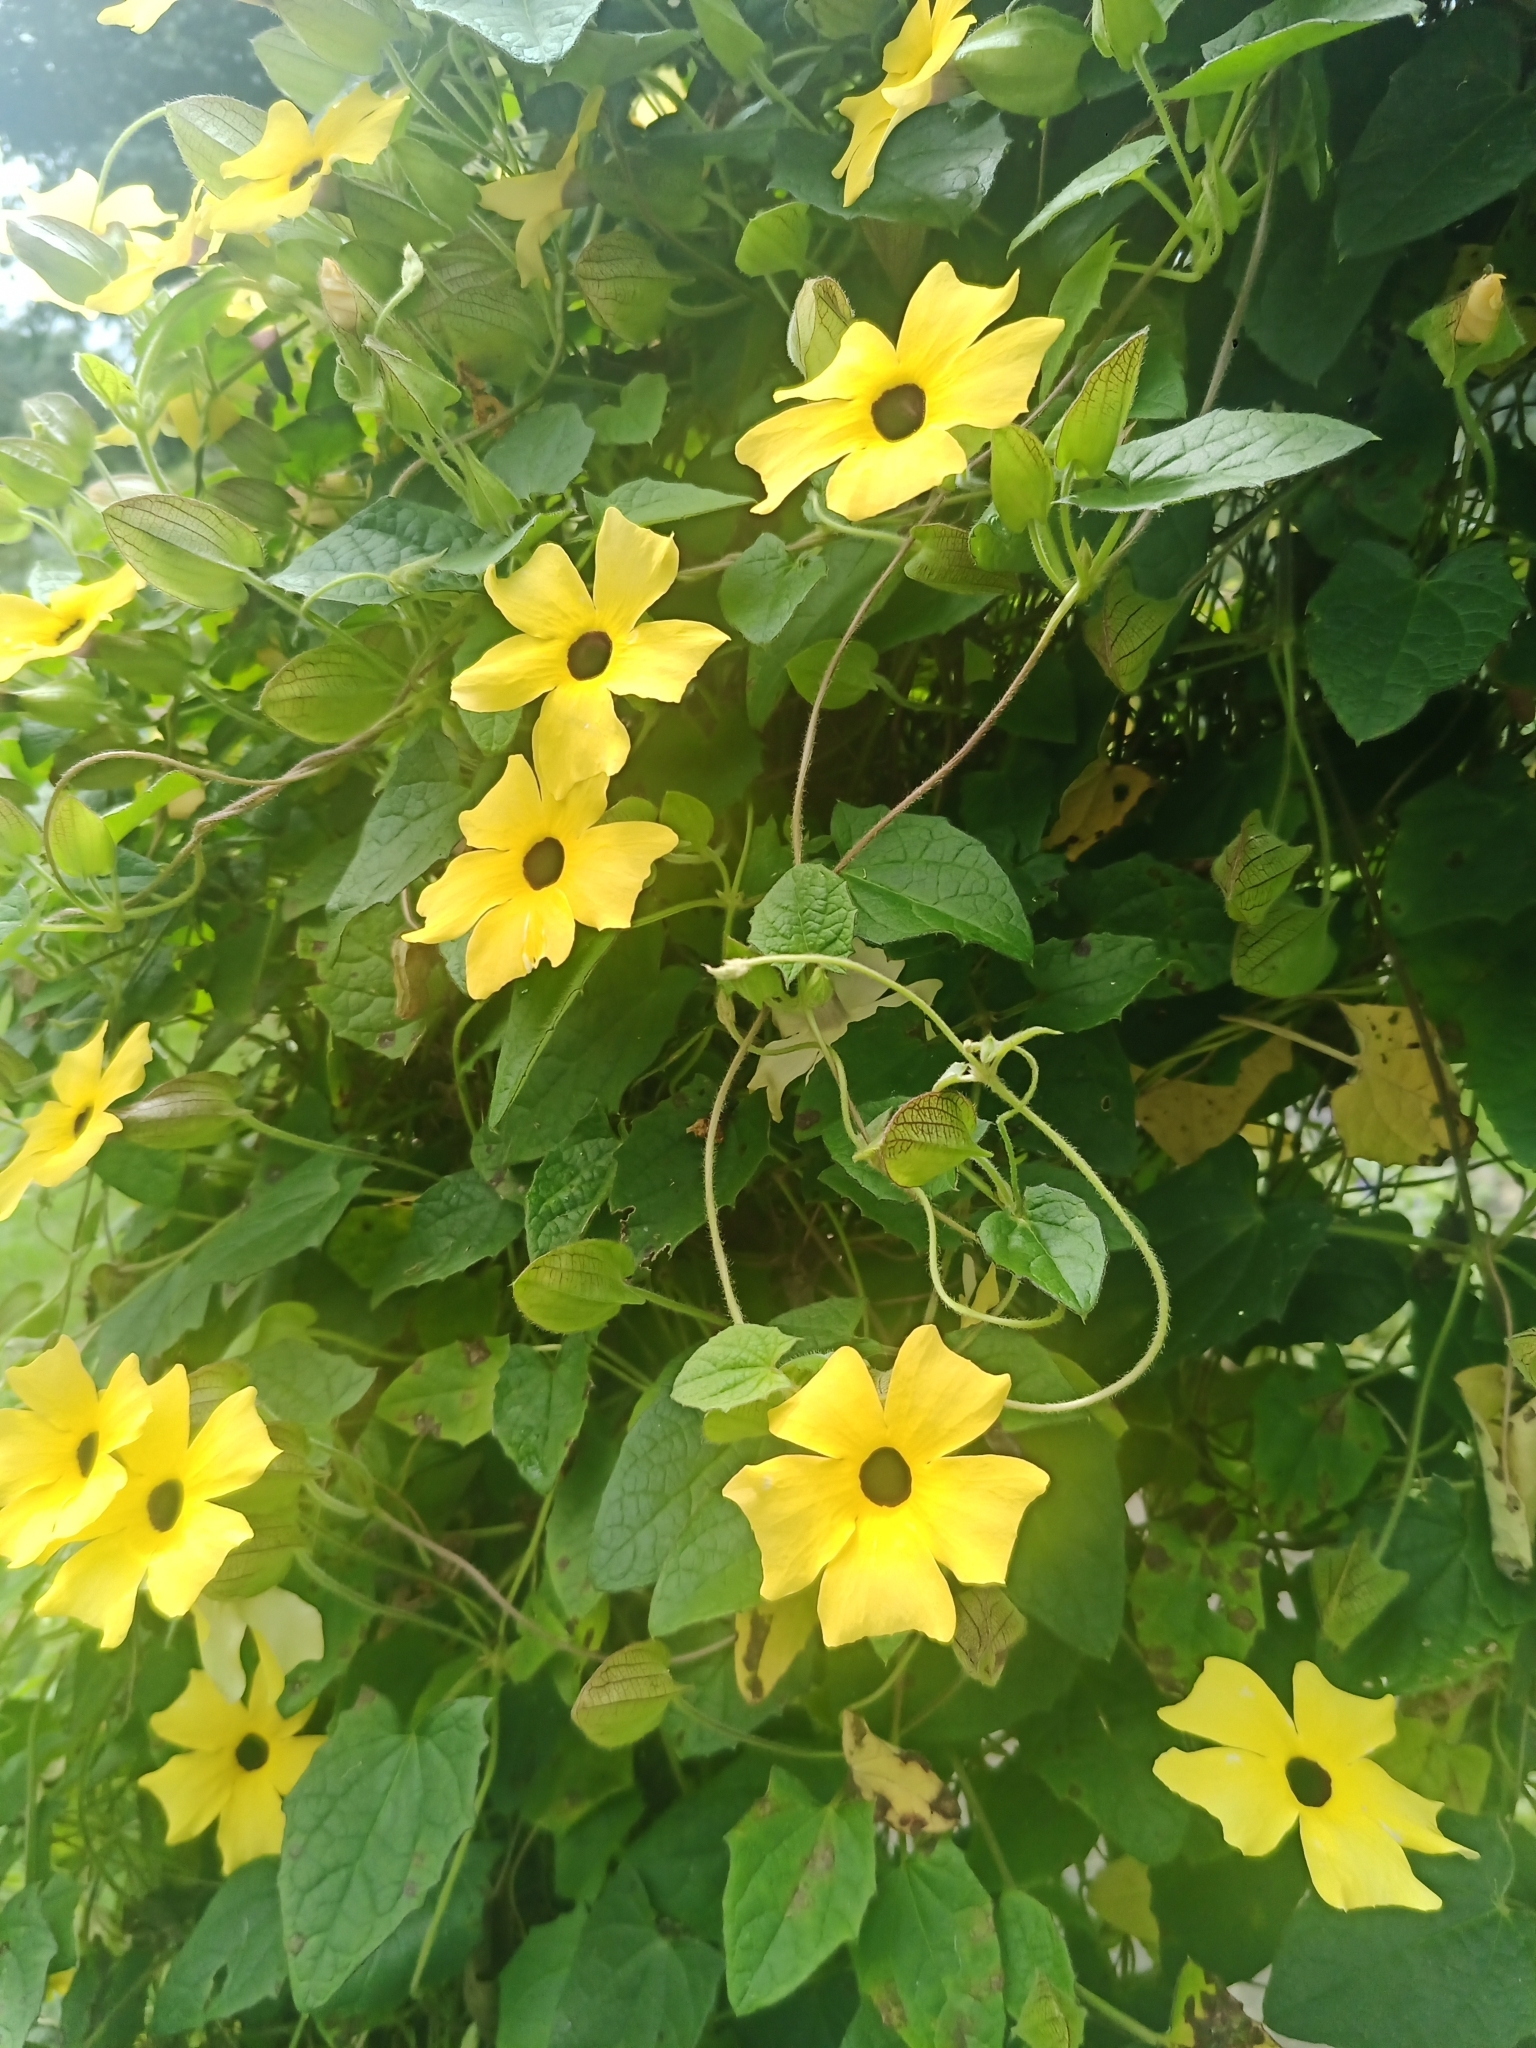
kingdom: Plantae
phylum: Tracheophyta
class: Magnoliopsida
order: Lamiales
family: Acanthaceae
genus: Thunbergia
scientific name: Thunbergia alata
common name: Blackeyed susan vine
